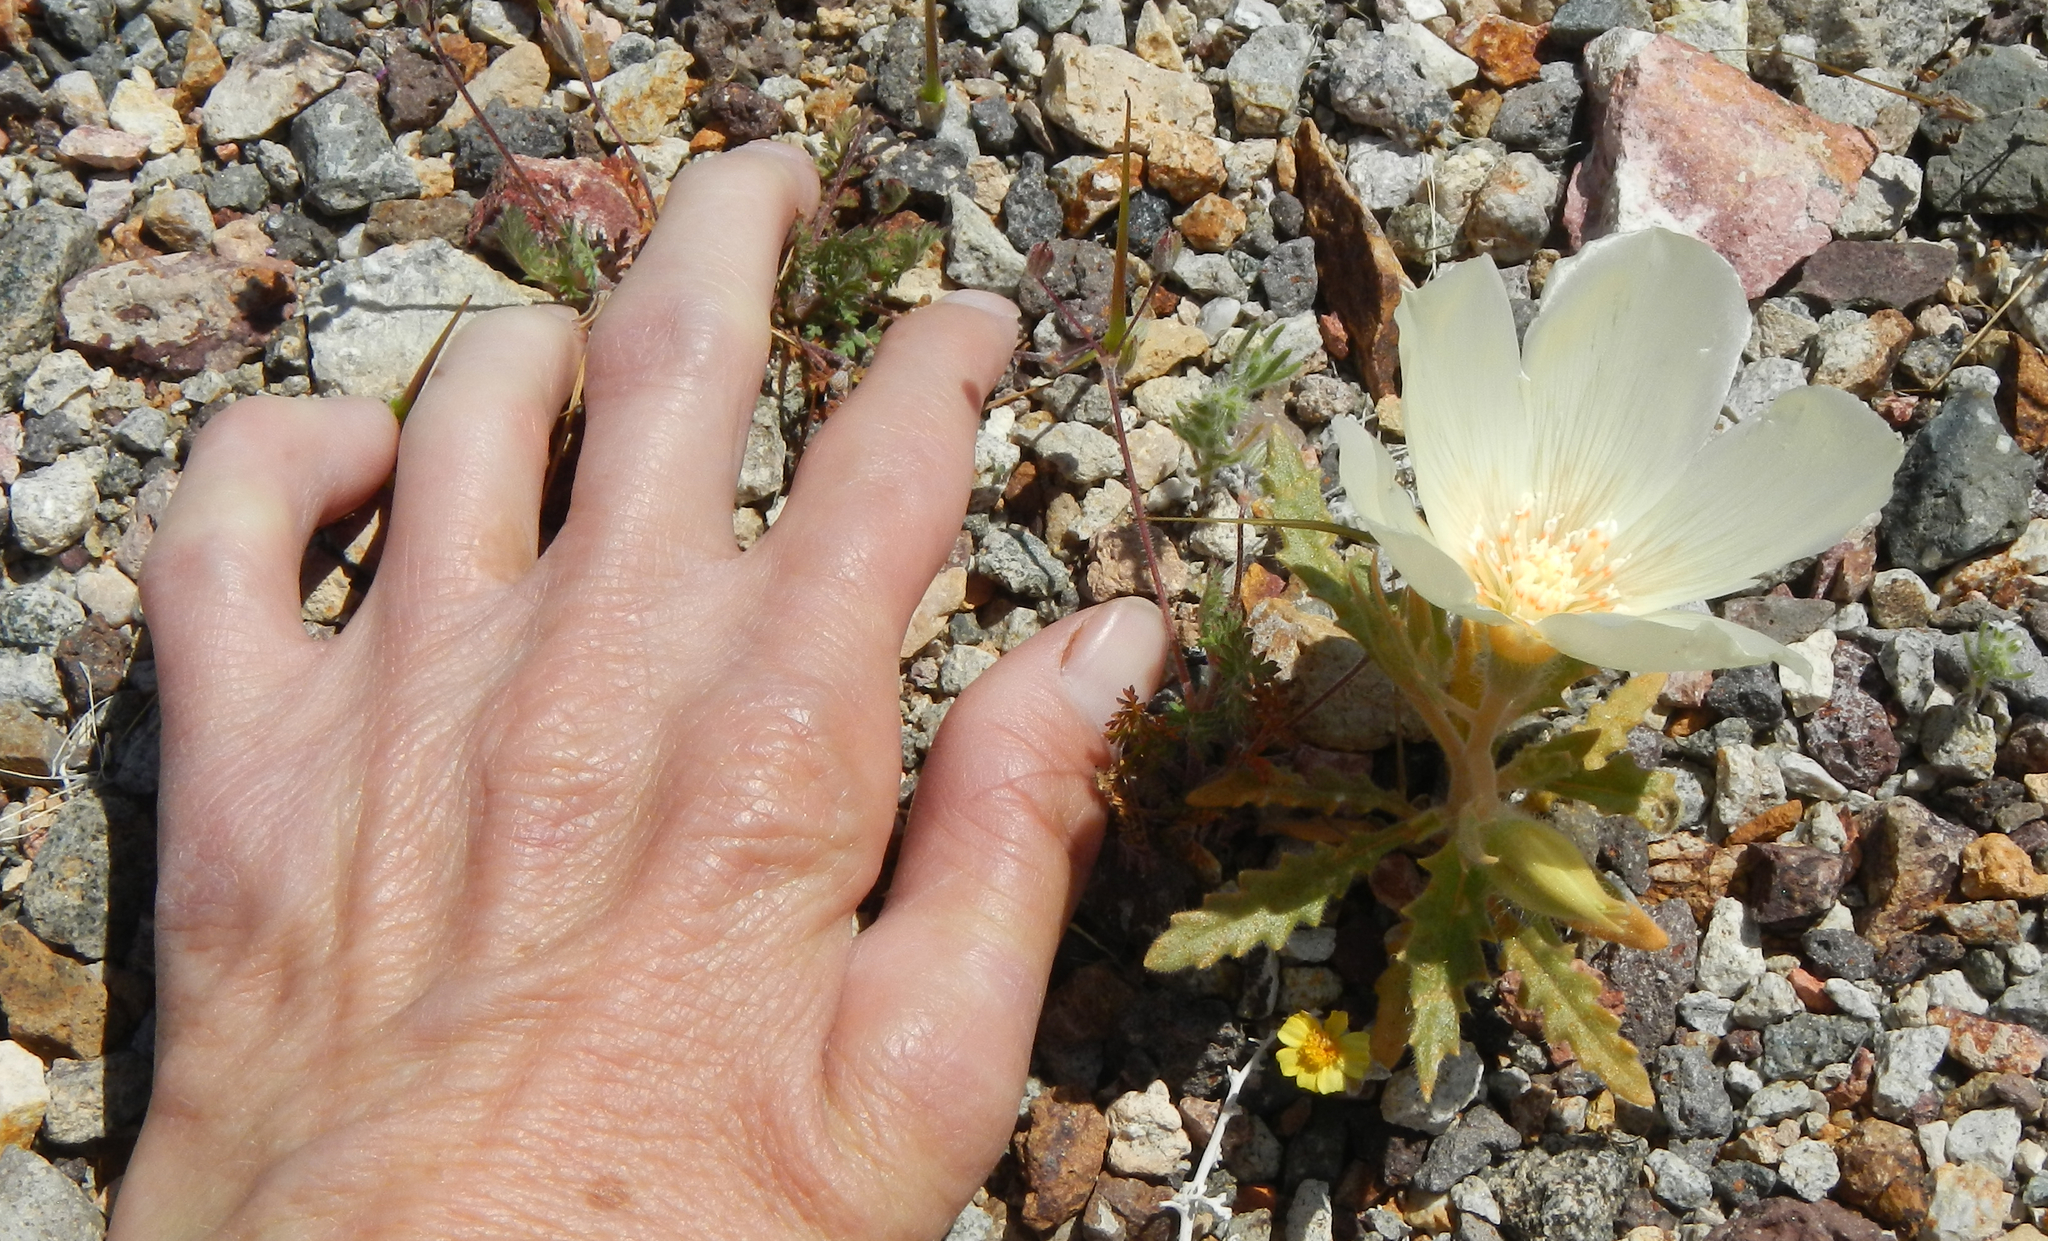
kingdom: Plantae
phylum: Tracheophyta
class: Magnoliopsida
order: Cornales
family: Loasaceae
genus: Mentzelia
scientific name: Mentzelia tricuspis
